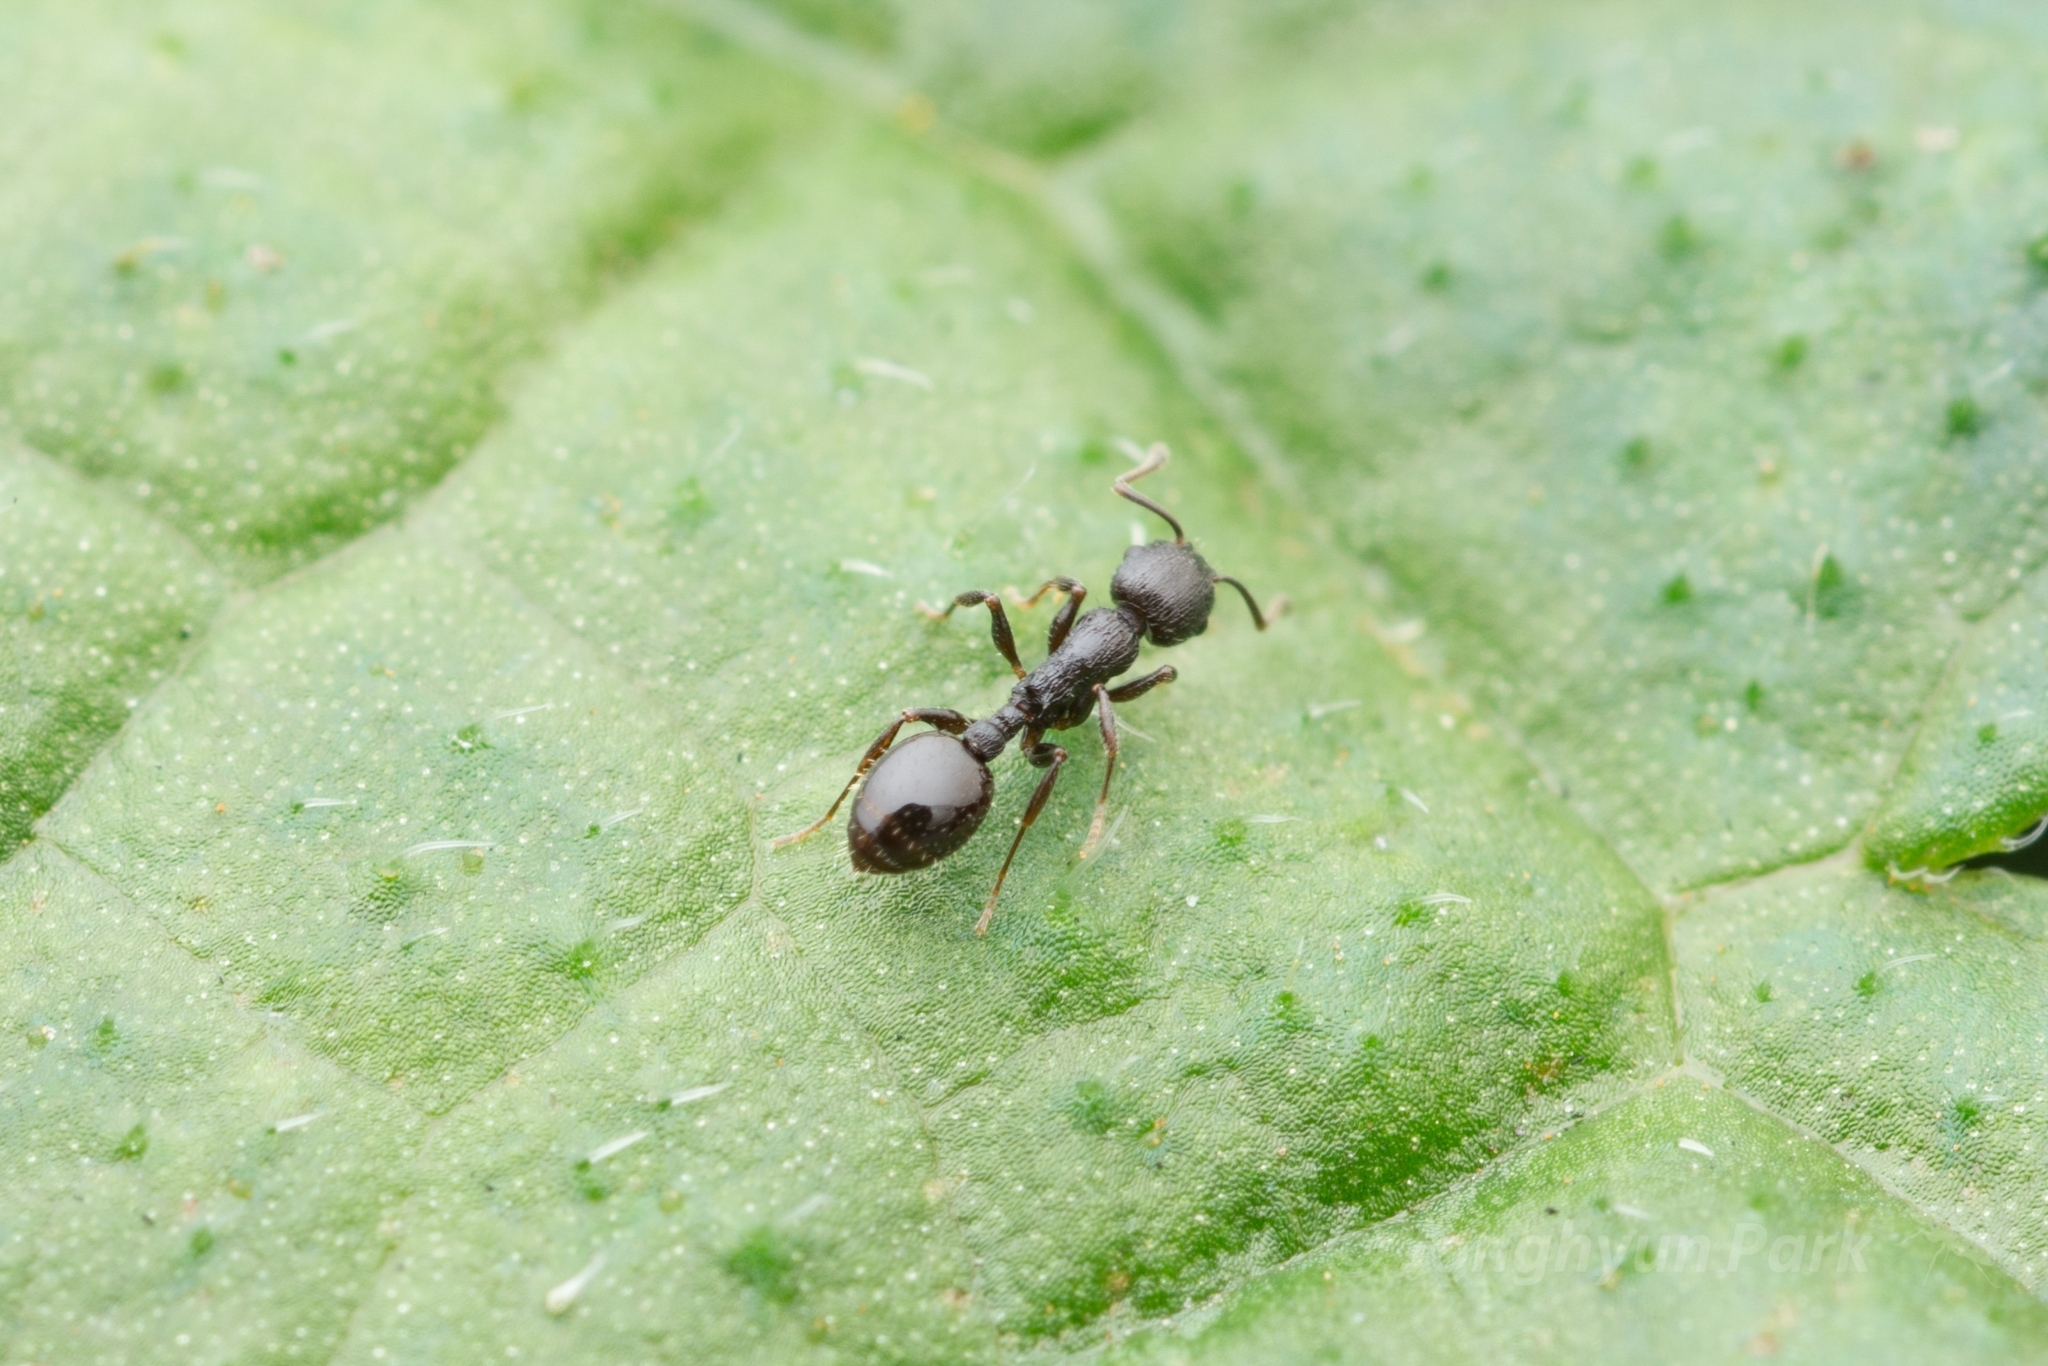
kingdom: Animalia
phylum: Arthropoda
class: Insecta
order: Hymenoptera
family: Formicidae
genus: Temnothorax
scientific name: Temnothorax
